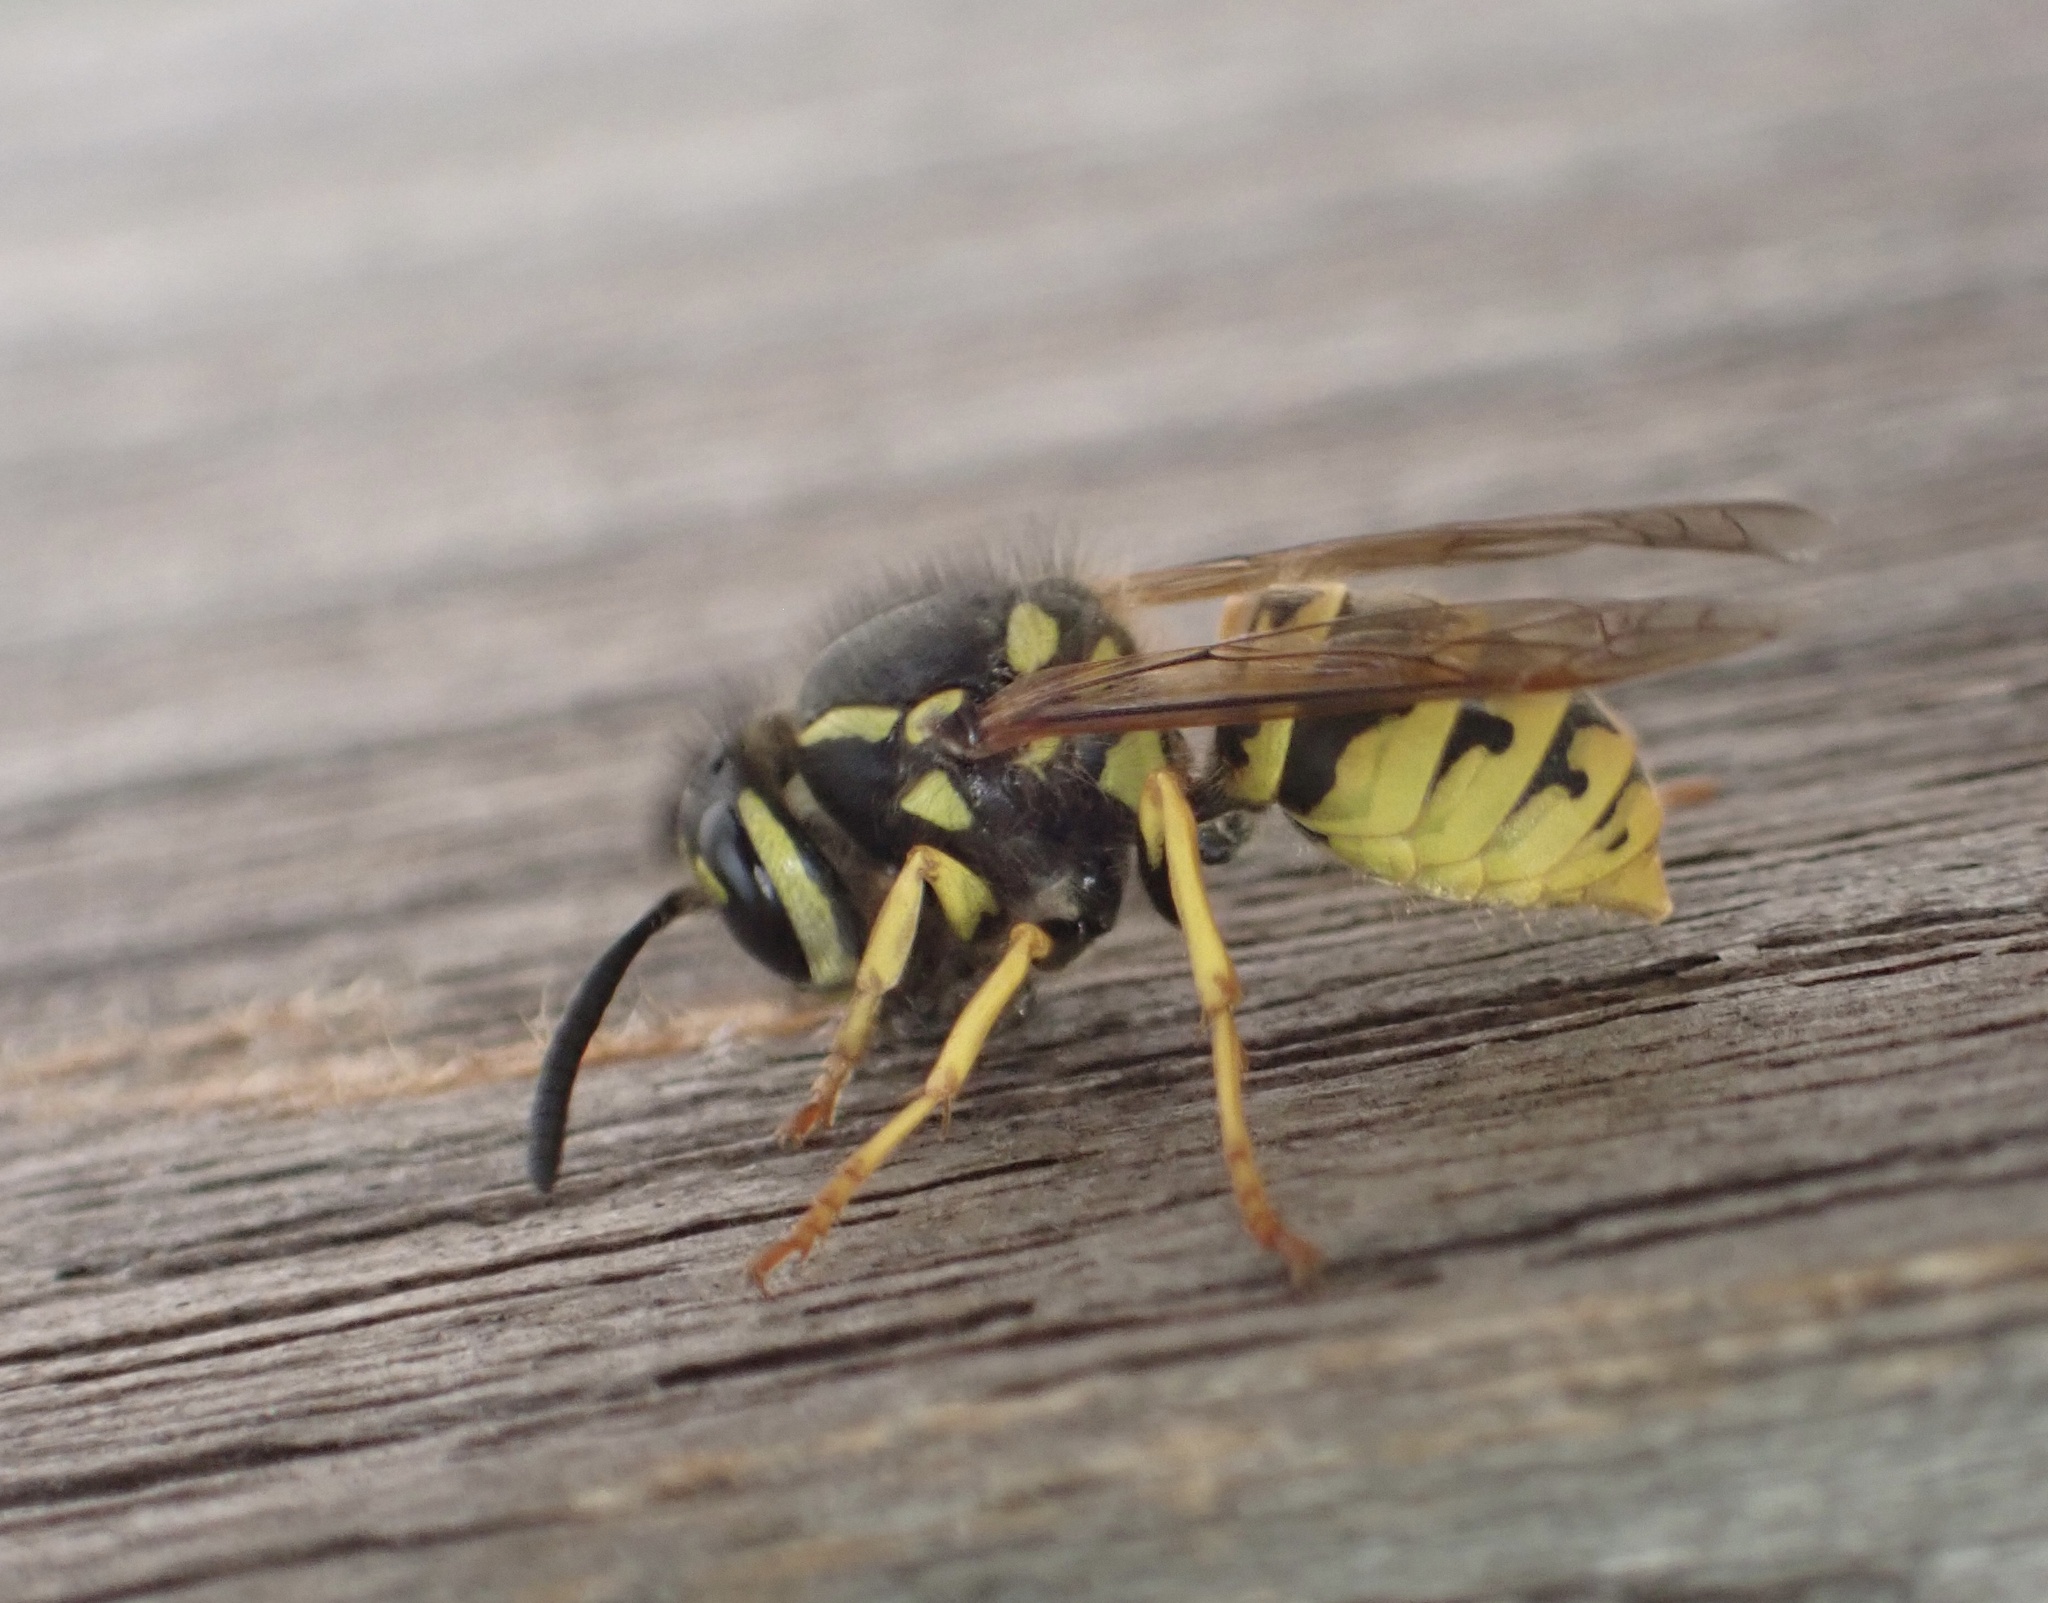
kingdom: Animalia
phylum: Arthropoda
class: Insecta
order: Hymenoptera
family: Vespidae
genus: Vespula
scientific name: Vespula germanica
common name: German wasp
